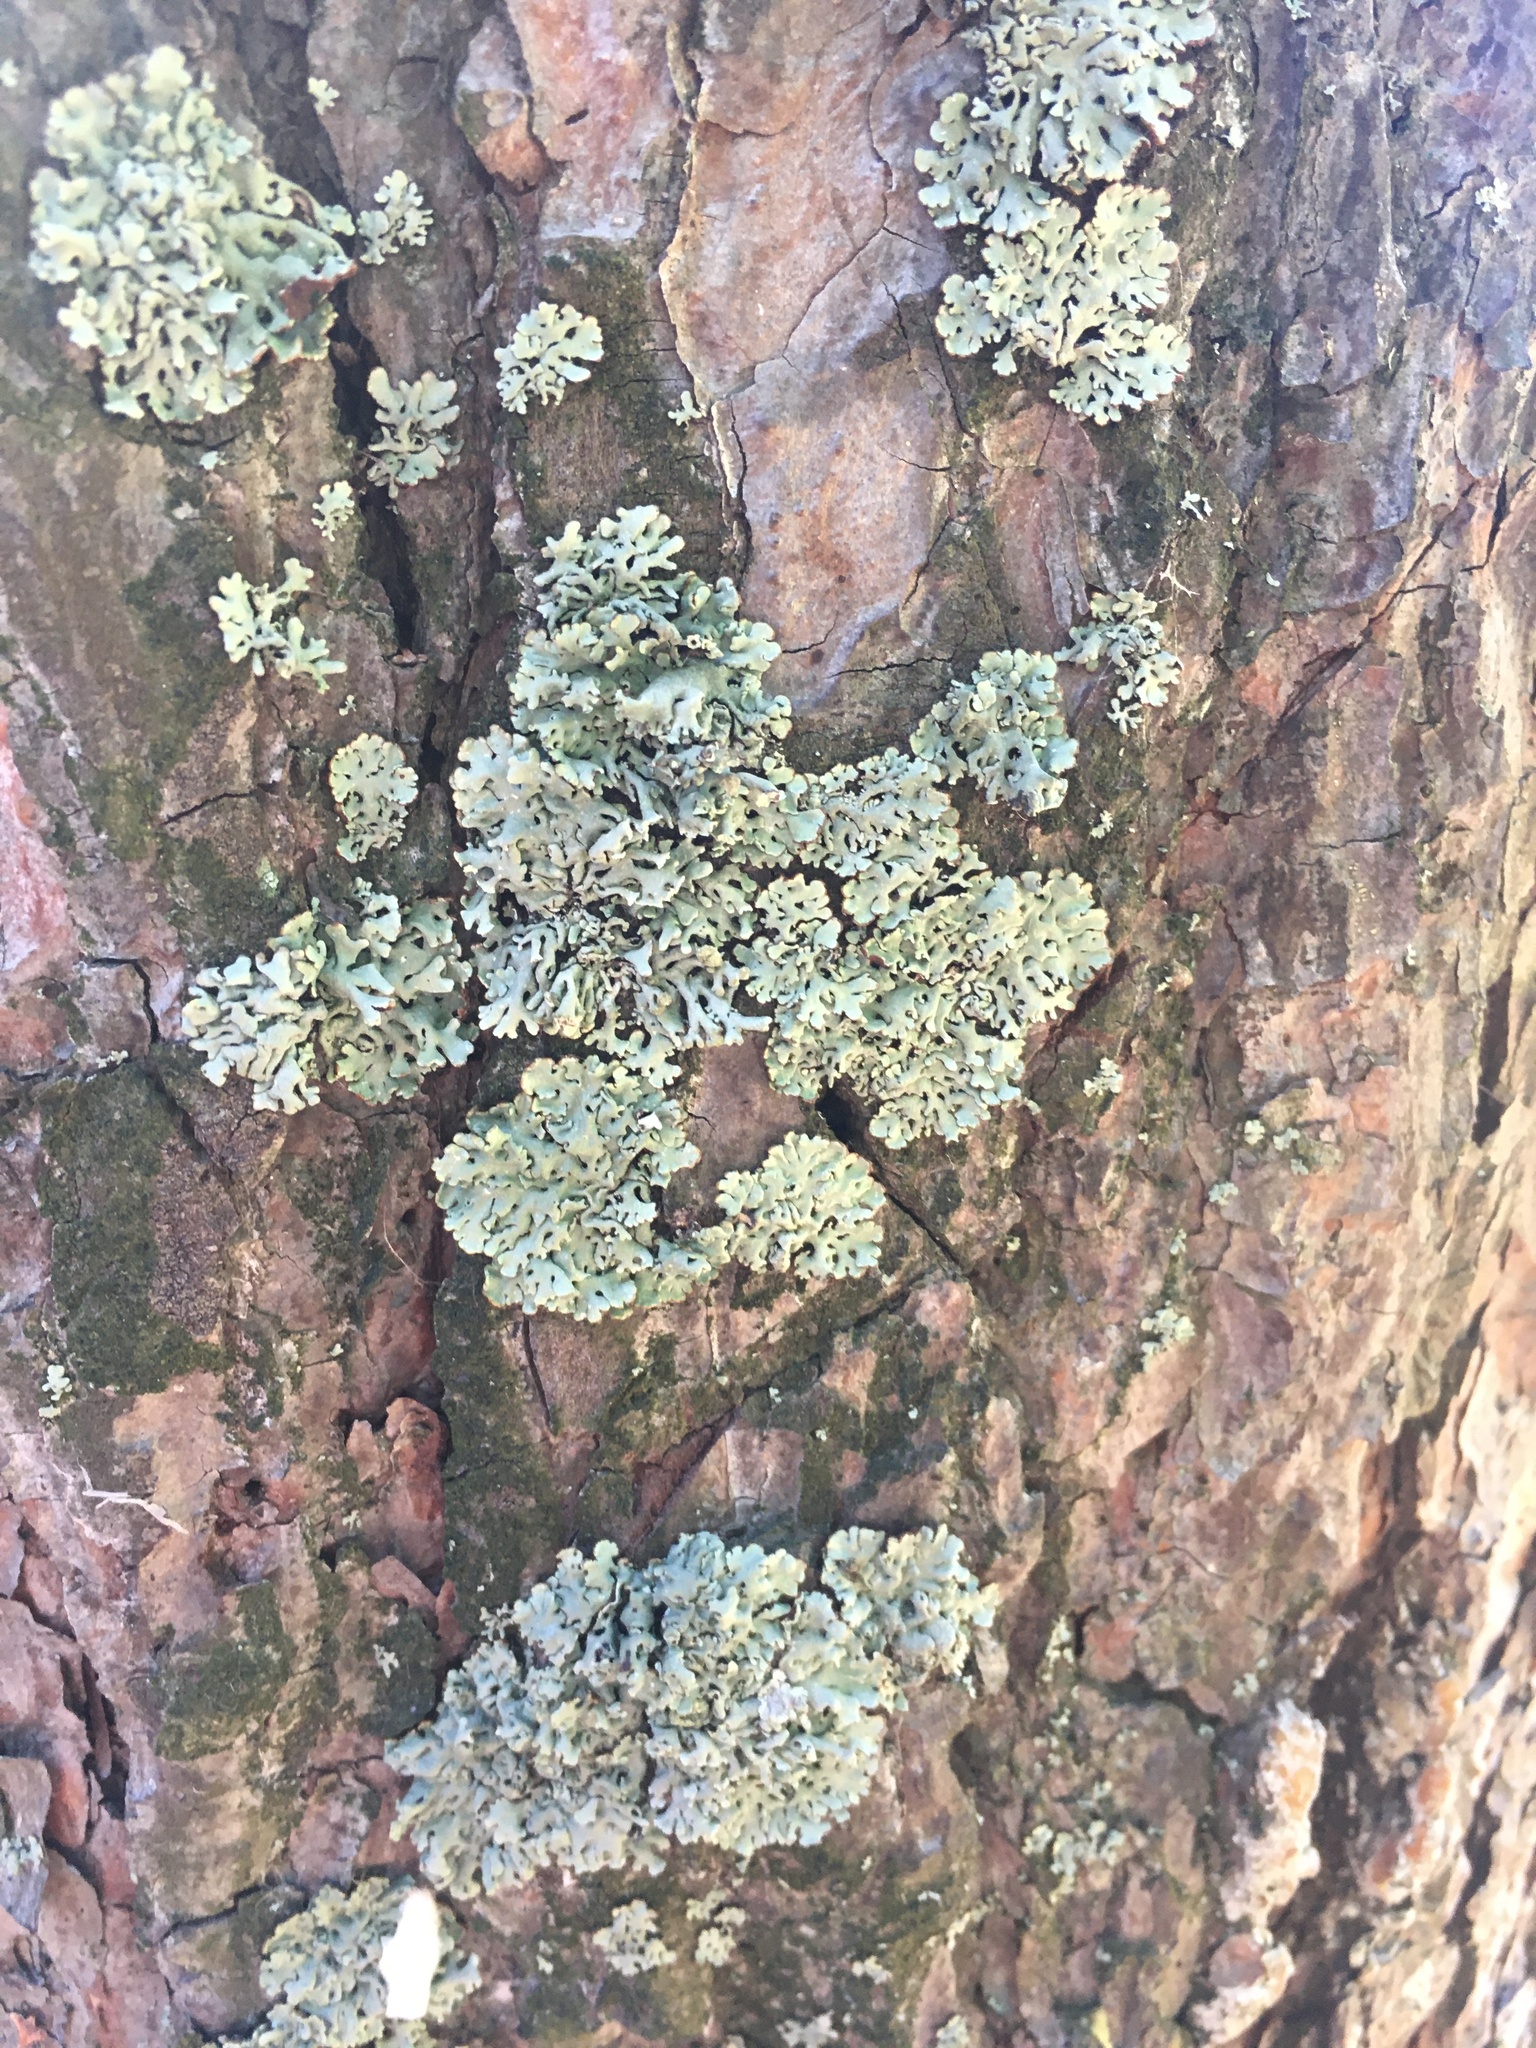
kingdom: Fungi
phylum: Ascomycota
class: Lecanoromycetes
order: Lecanorales
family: Parmeliaceae
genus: Hypogymnia
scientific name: Hypogymnia physodes
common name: Dark crottle
